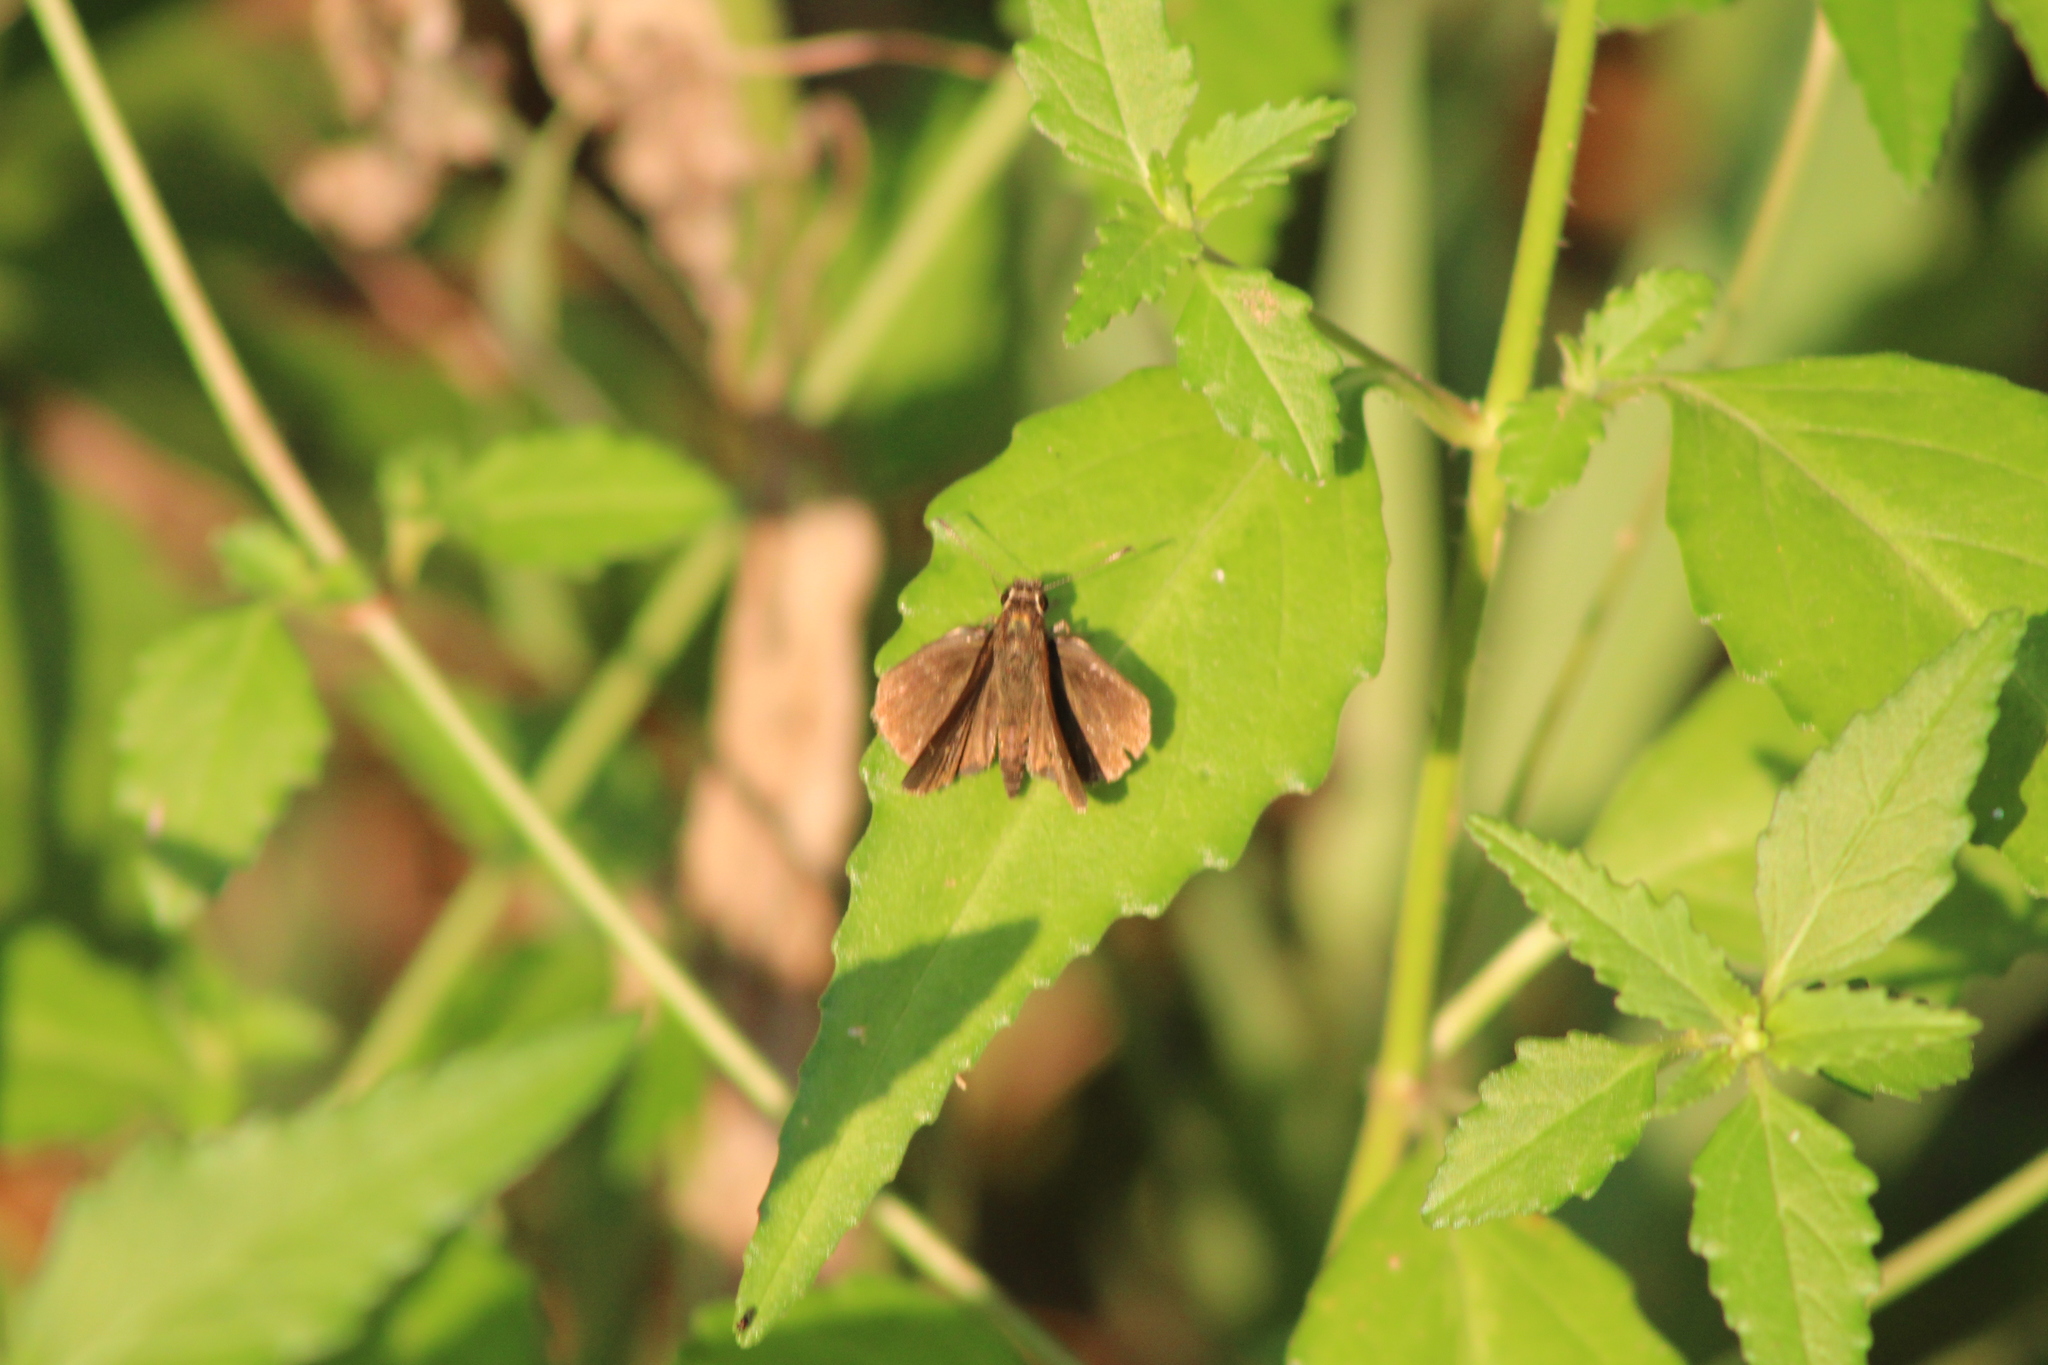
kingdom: Animalia
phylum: Arthropoda
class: Insecta
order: Lepidoptera
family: Hesperiidae
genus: Lerema
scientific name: Lerema accius
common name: Clouded skipper
